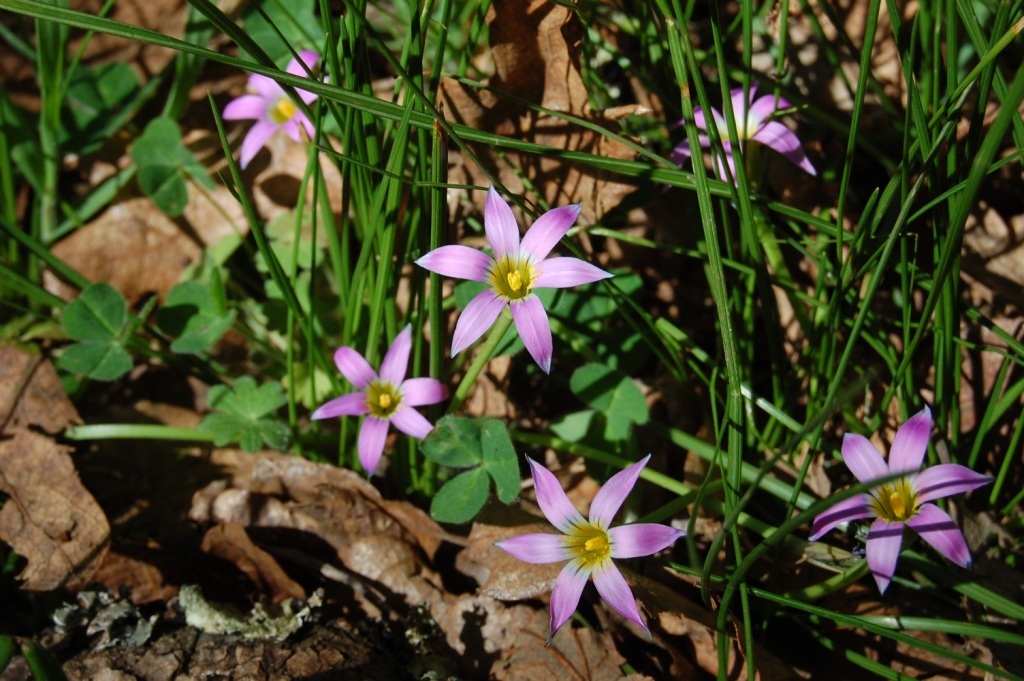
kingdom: Plantae
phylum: Tracheophyta
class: Liliopsida
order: Asparagales
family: Iridaceae
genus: Romulea
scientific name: Romulea rosea
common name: Oniongrass
